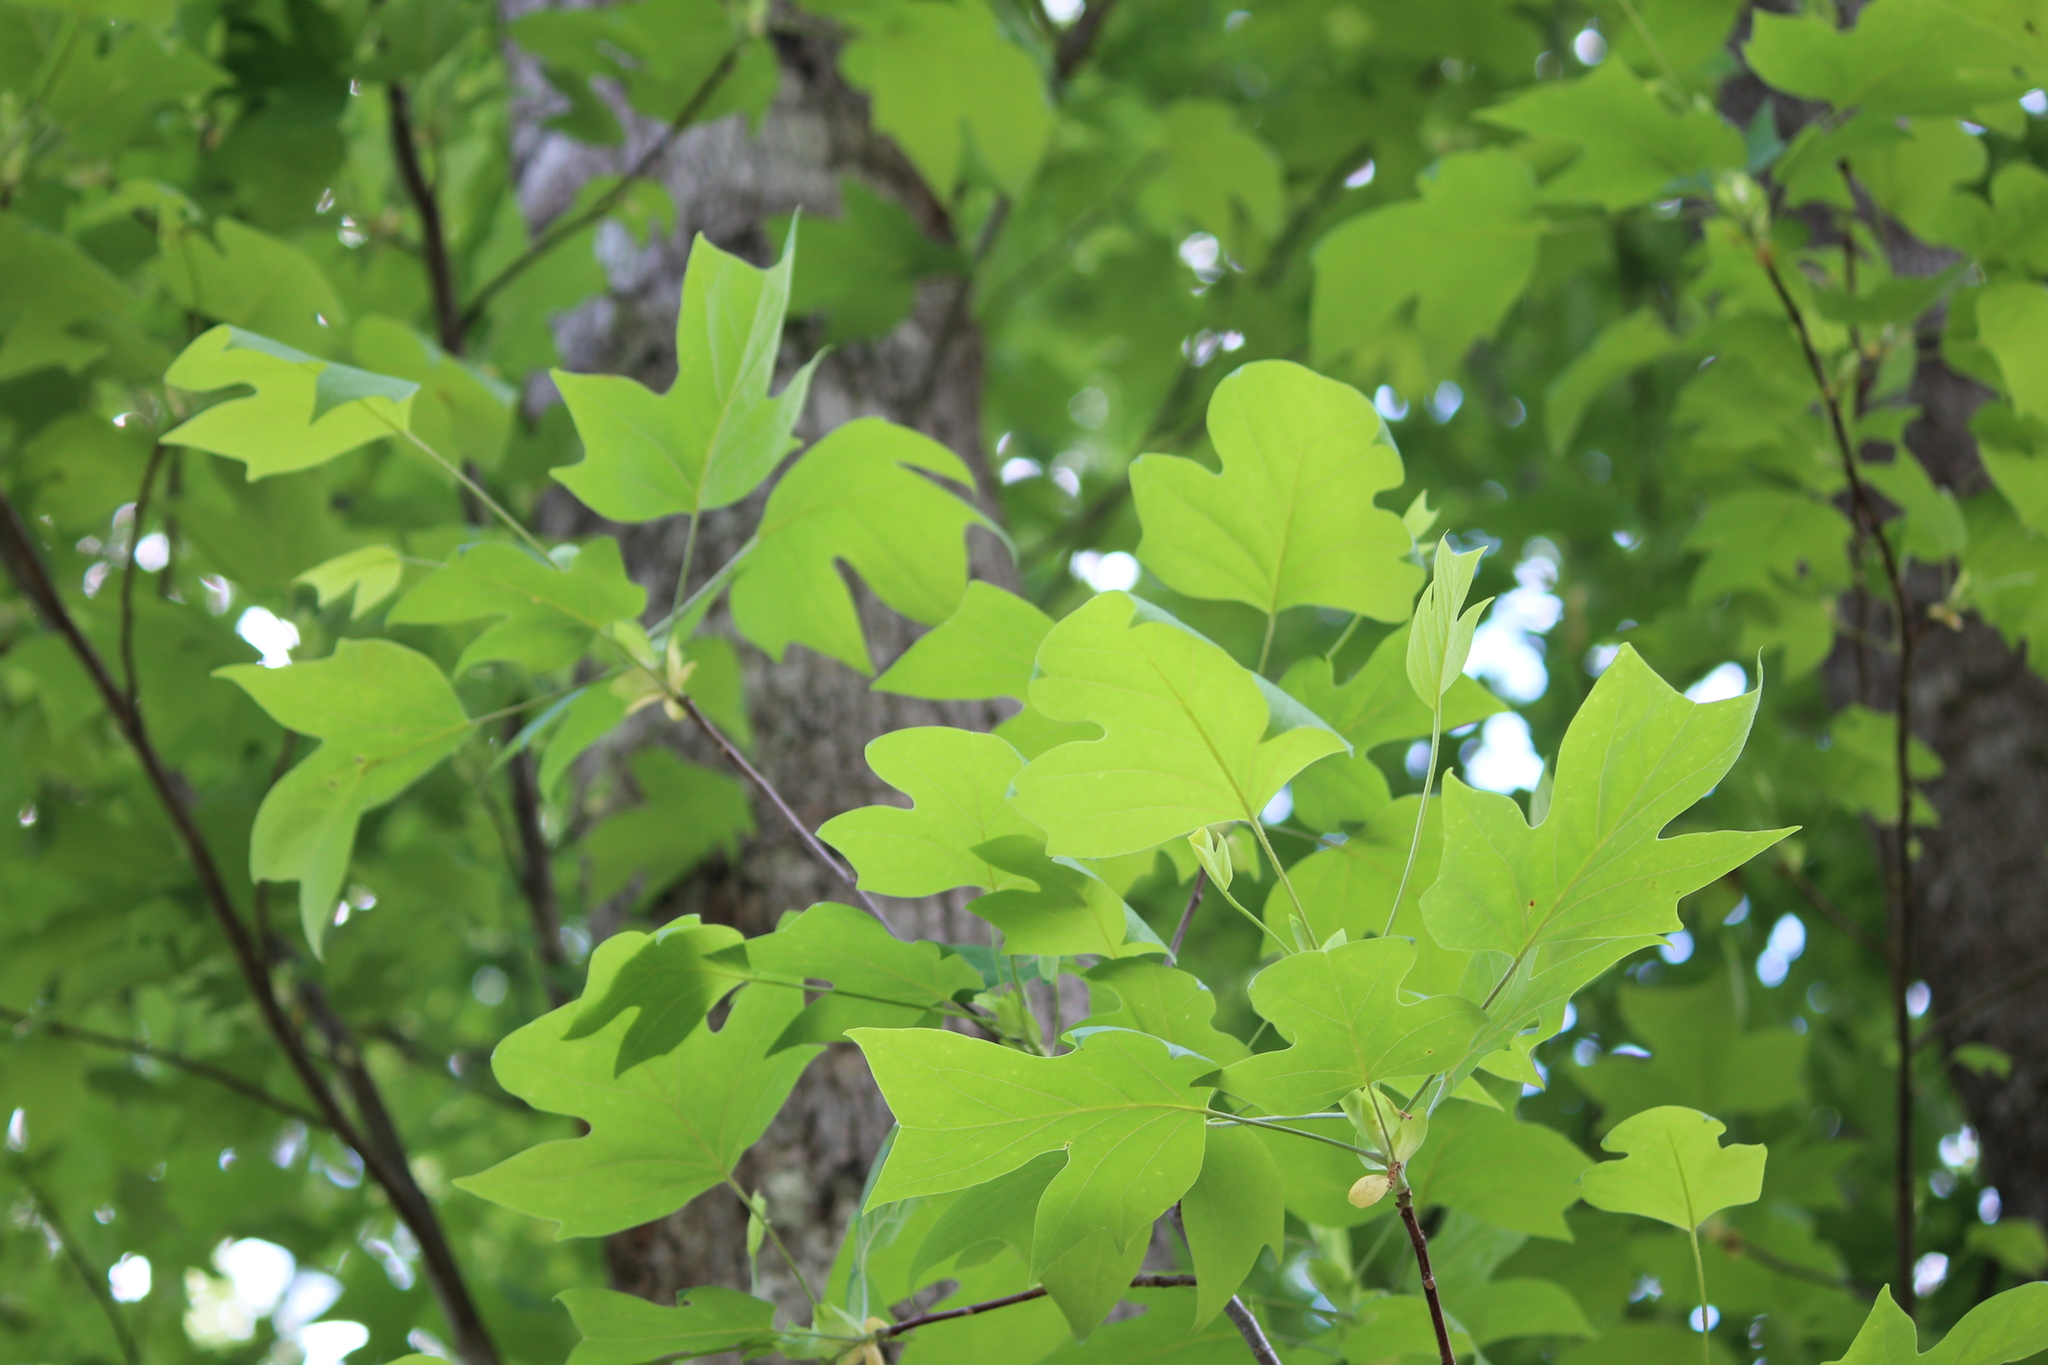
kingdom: Plantae
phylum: Tracheophyta
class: Magnoliopsida
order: Magnoliales
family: Magnoliaceae
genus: Liriodendron
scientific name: Liriodendron tulipifera
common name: Tulip tree
